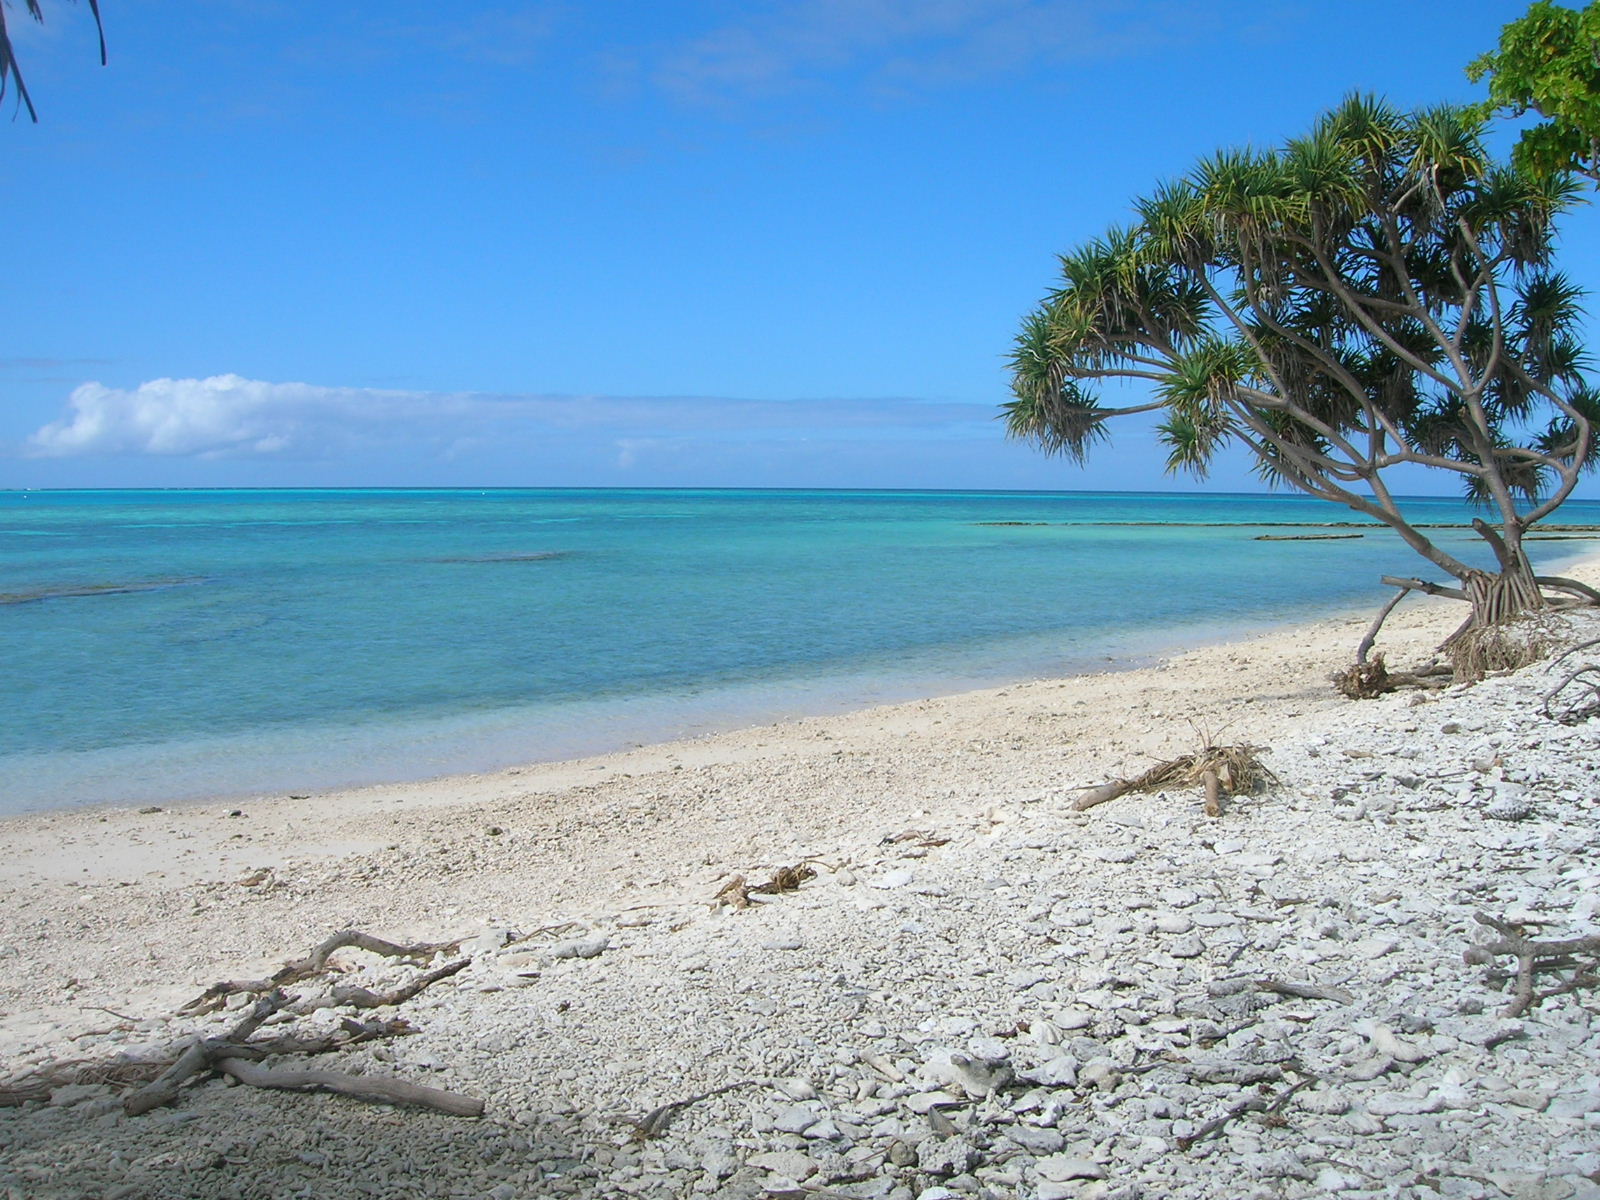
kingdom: Plantae
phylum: Tracheophyta
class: Liliopsida
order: Pandanales
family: Pandanaceae
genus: Pandanus
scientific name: Pandanus tectorius
